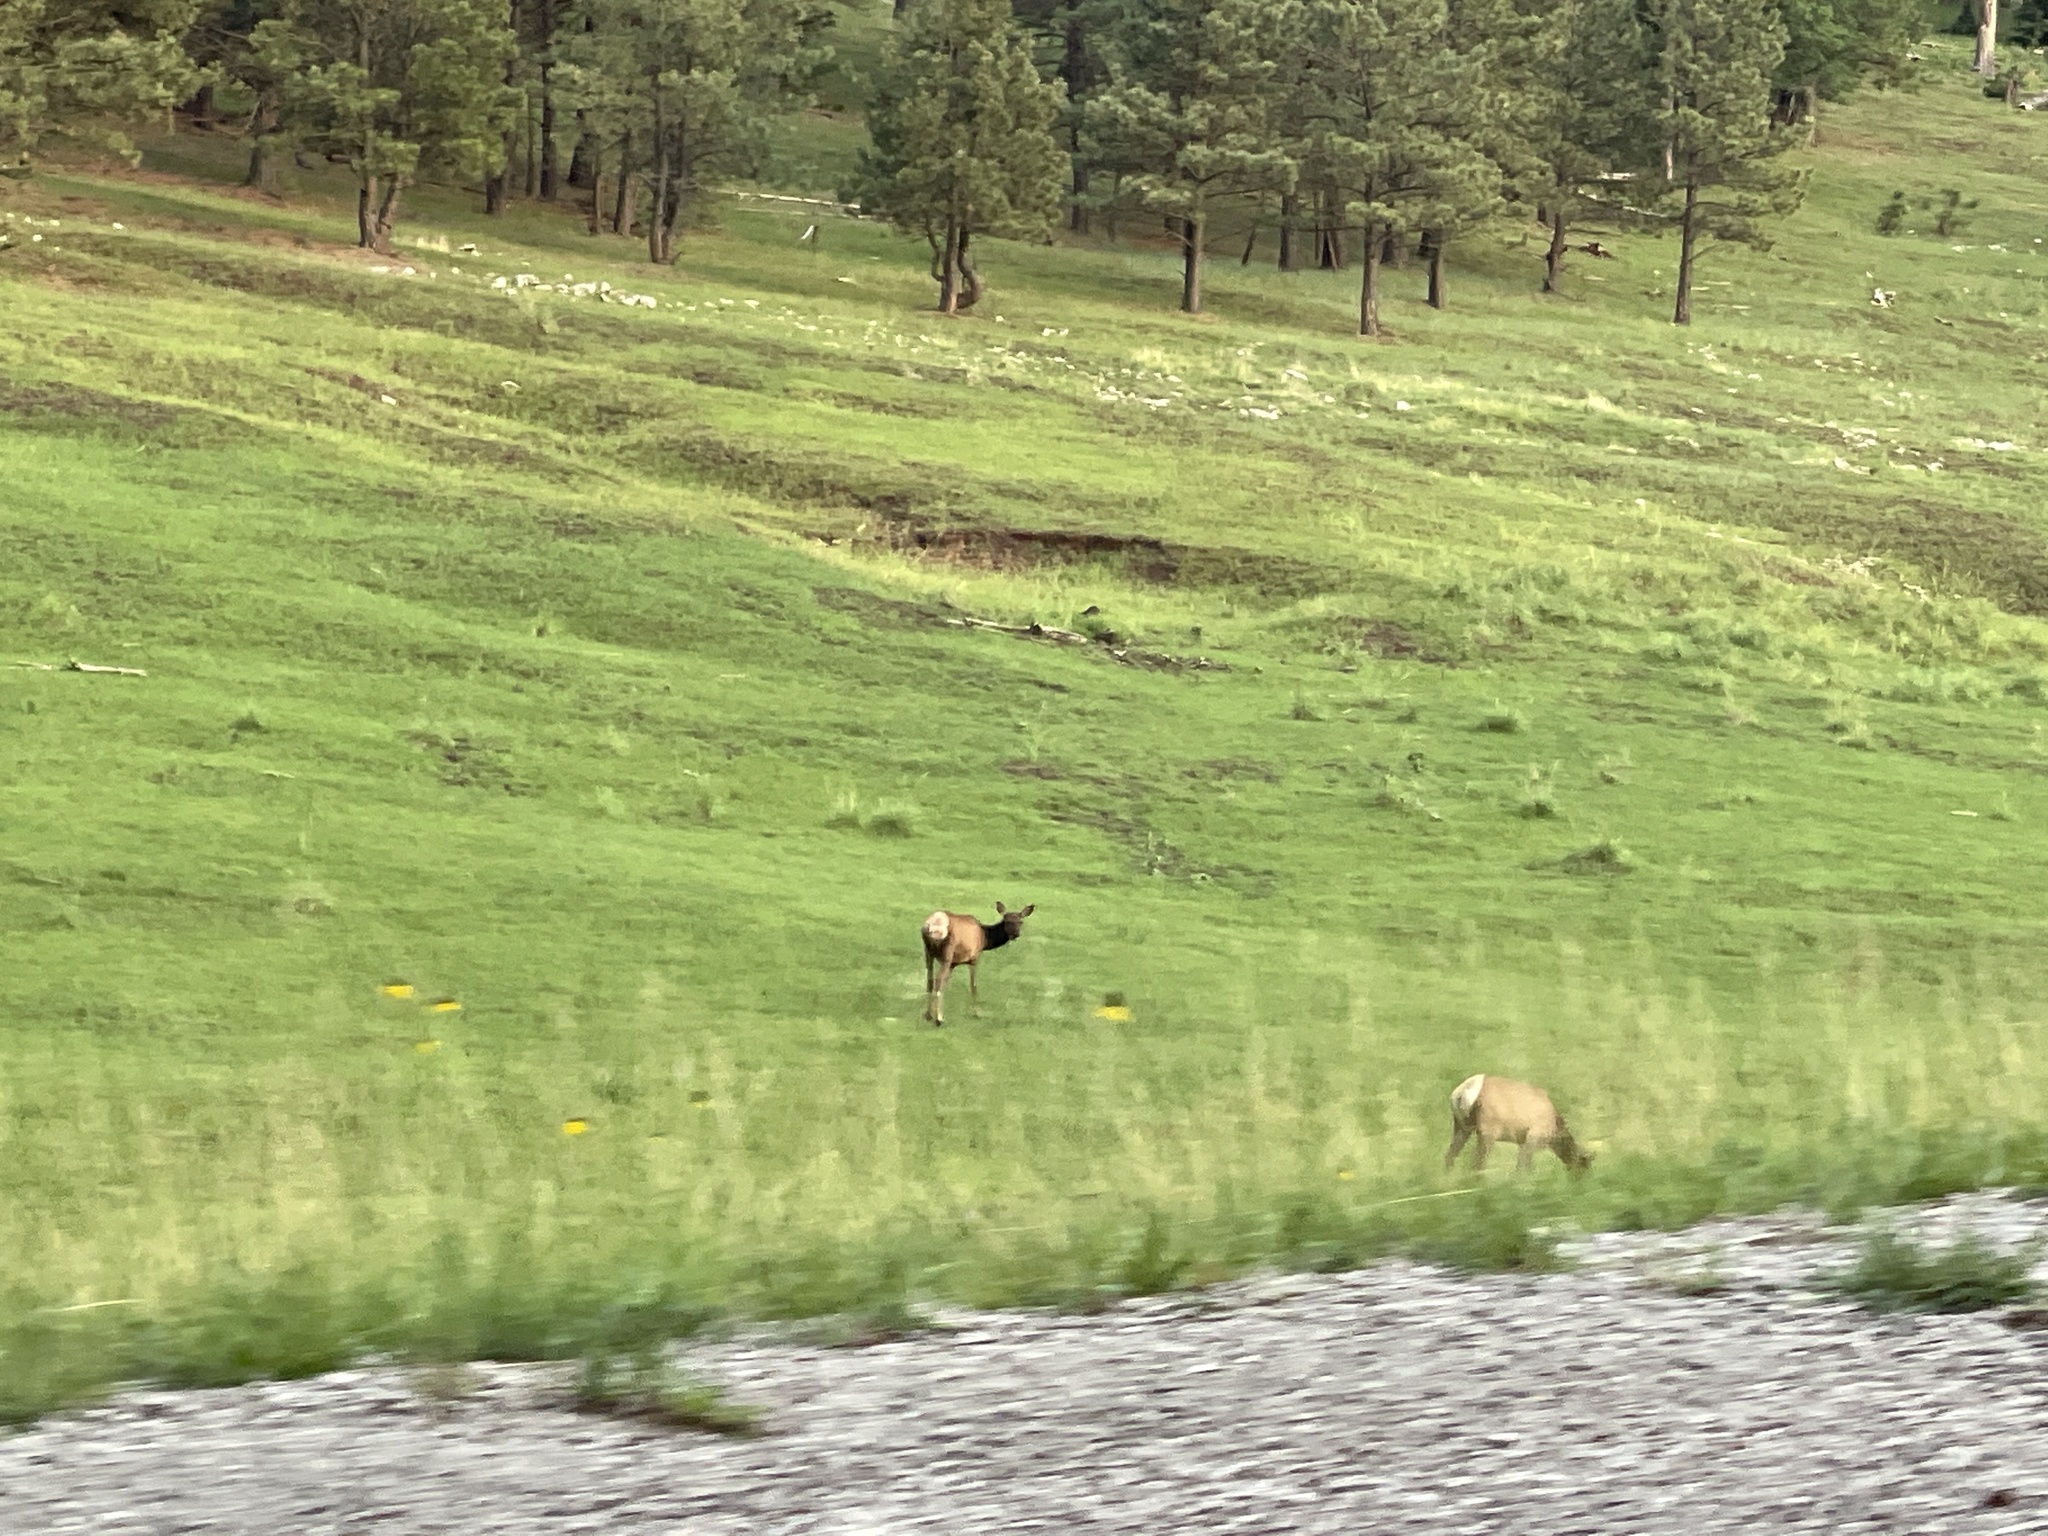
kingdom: Animalia
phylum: Chordata
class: Mammalia
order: Artiodactyla
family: Cervidae
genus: Cervus
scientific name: Cervus elaphus
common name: Red deer
